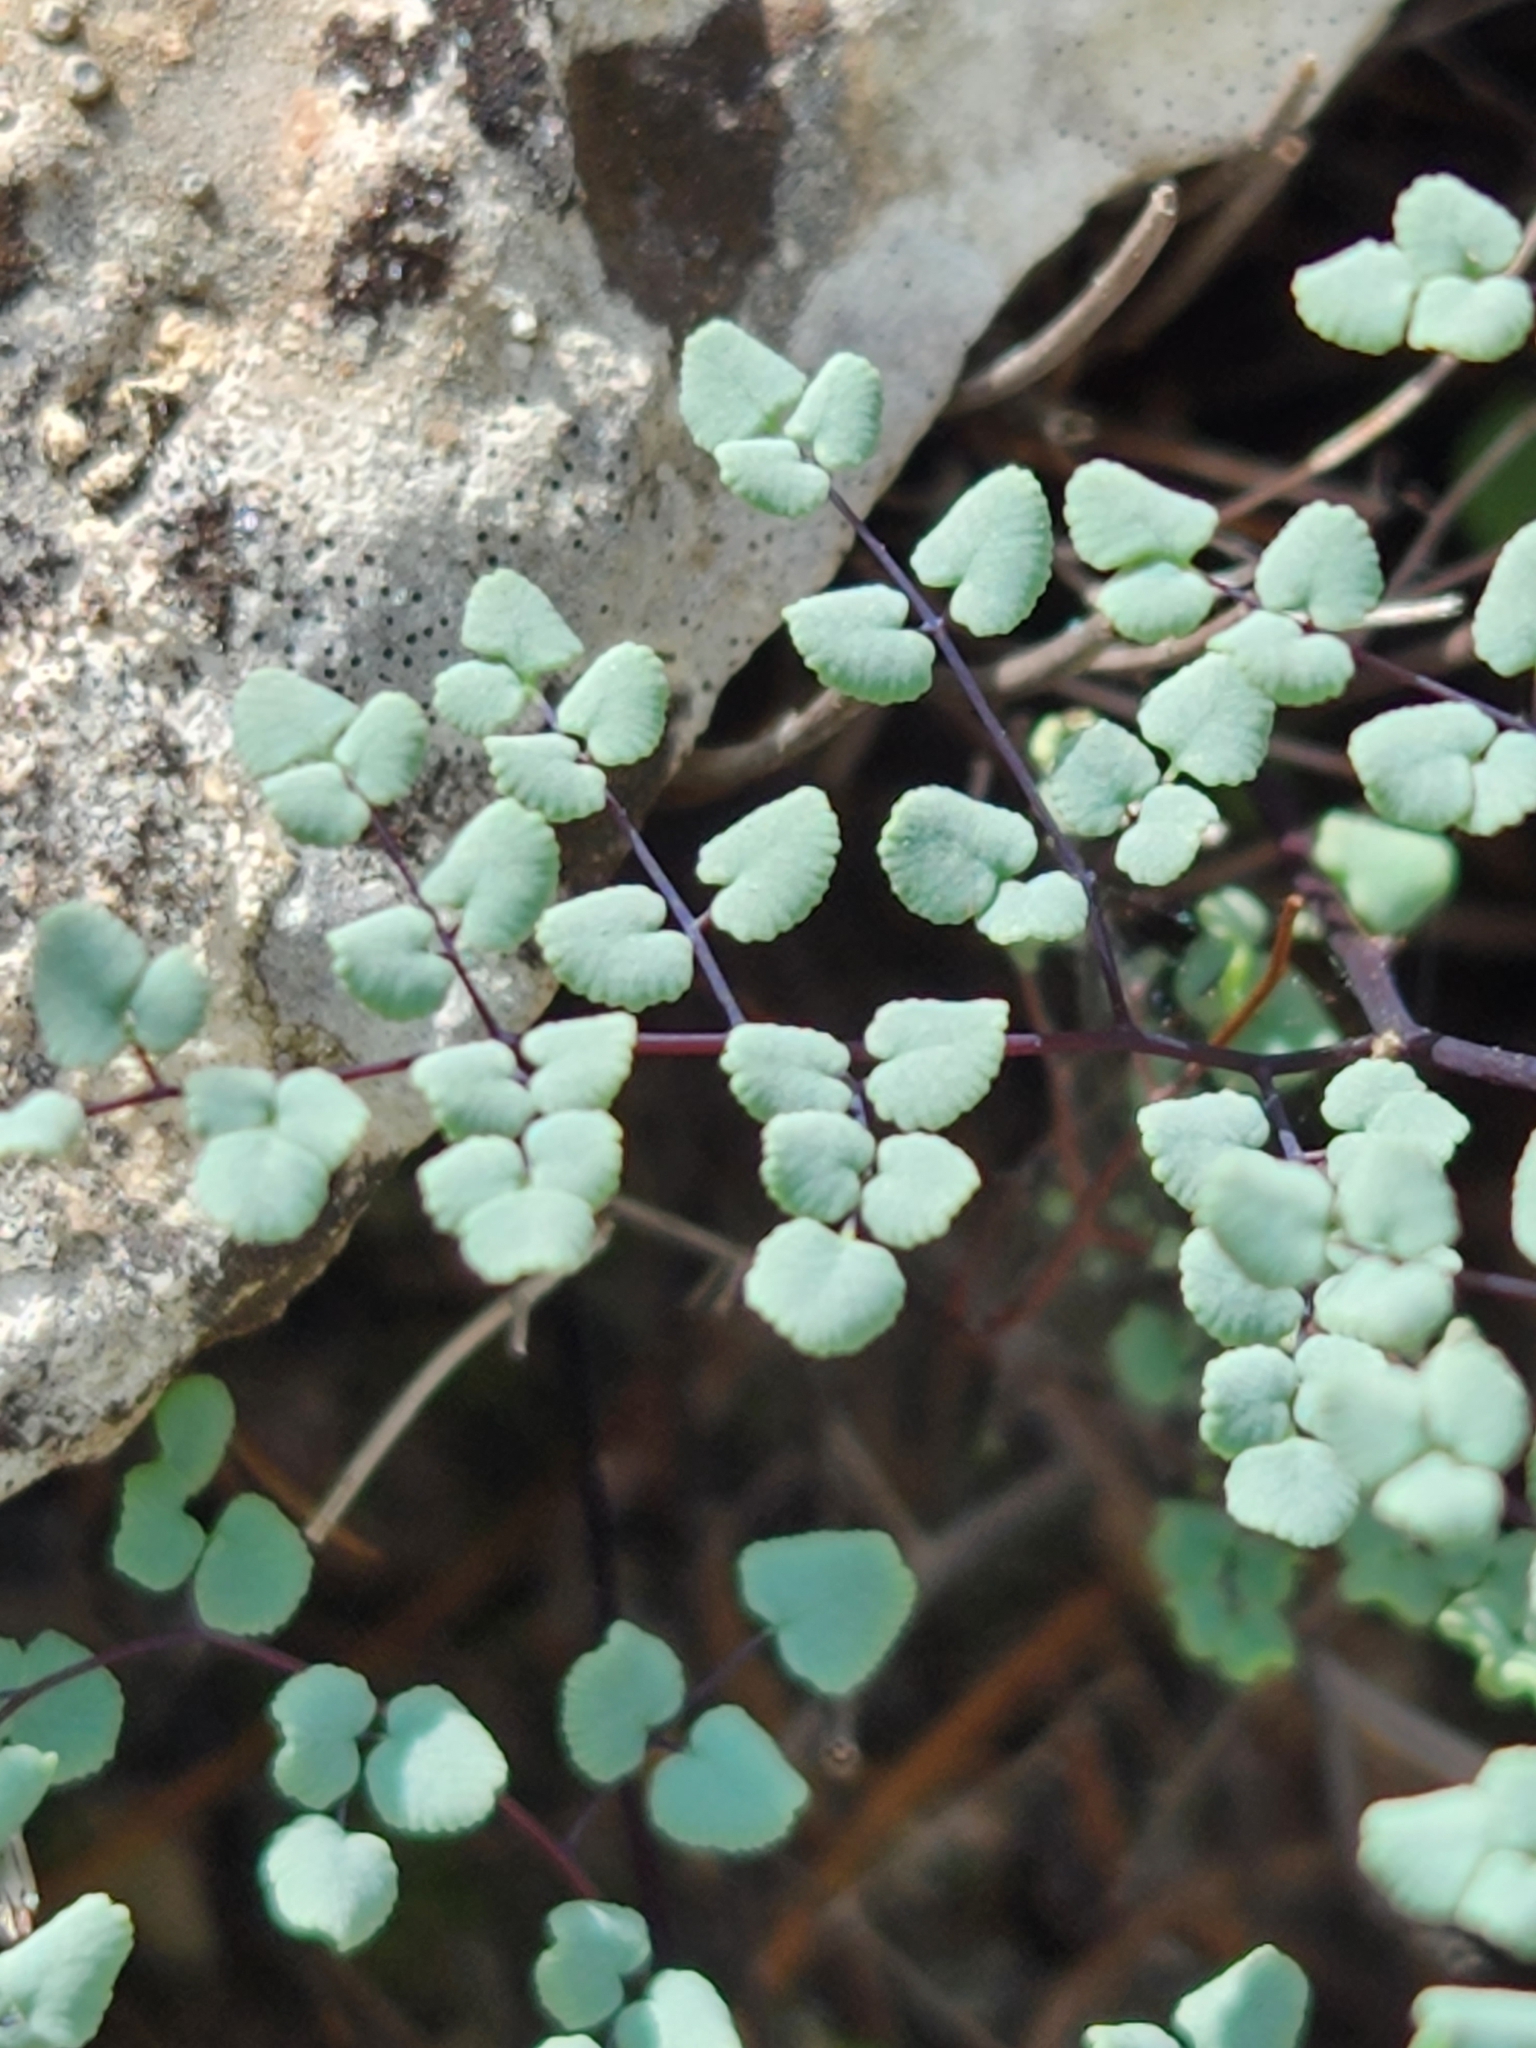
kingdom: Plantae
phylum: Tracheophyta
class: Polypodiopsida
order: Polypodiales
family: Pteridaceae
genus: Argyrochosma
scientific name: Argyrochosma microphylla
